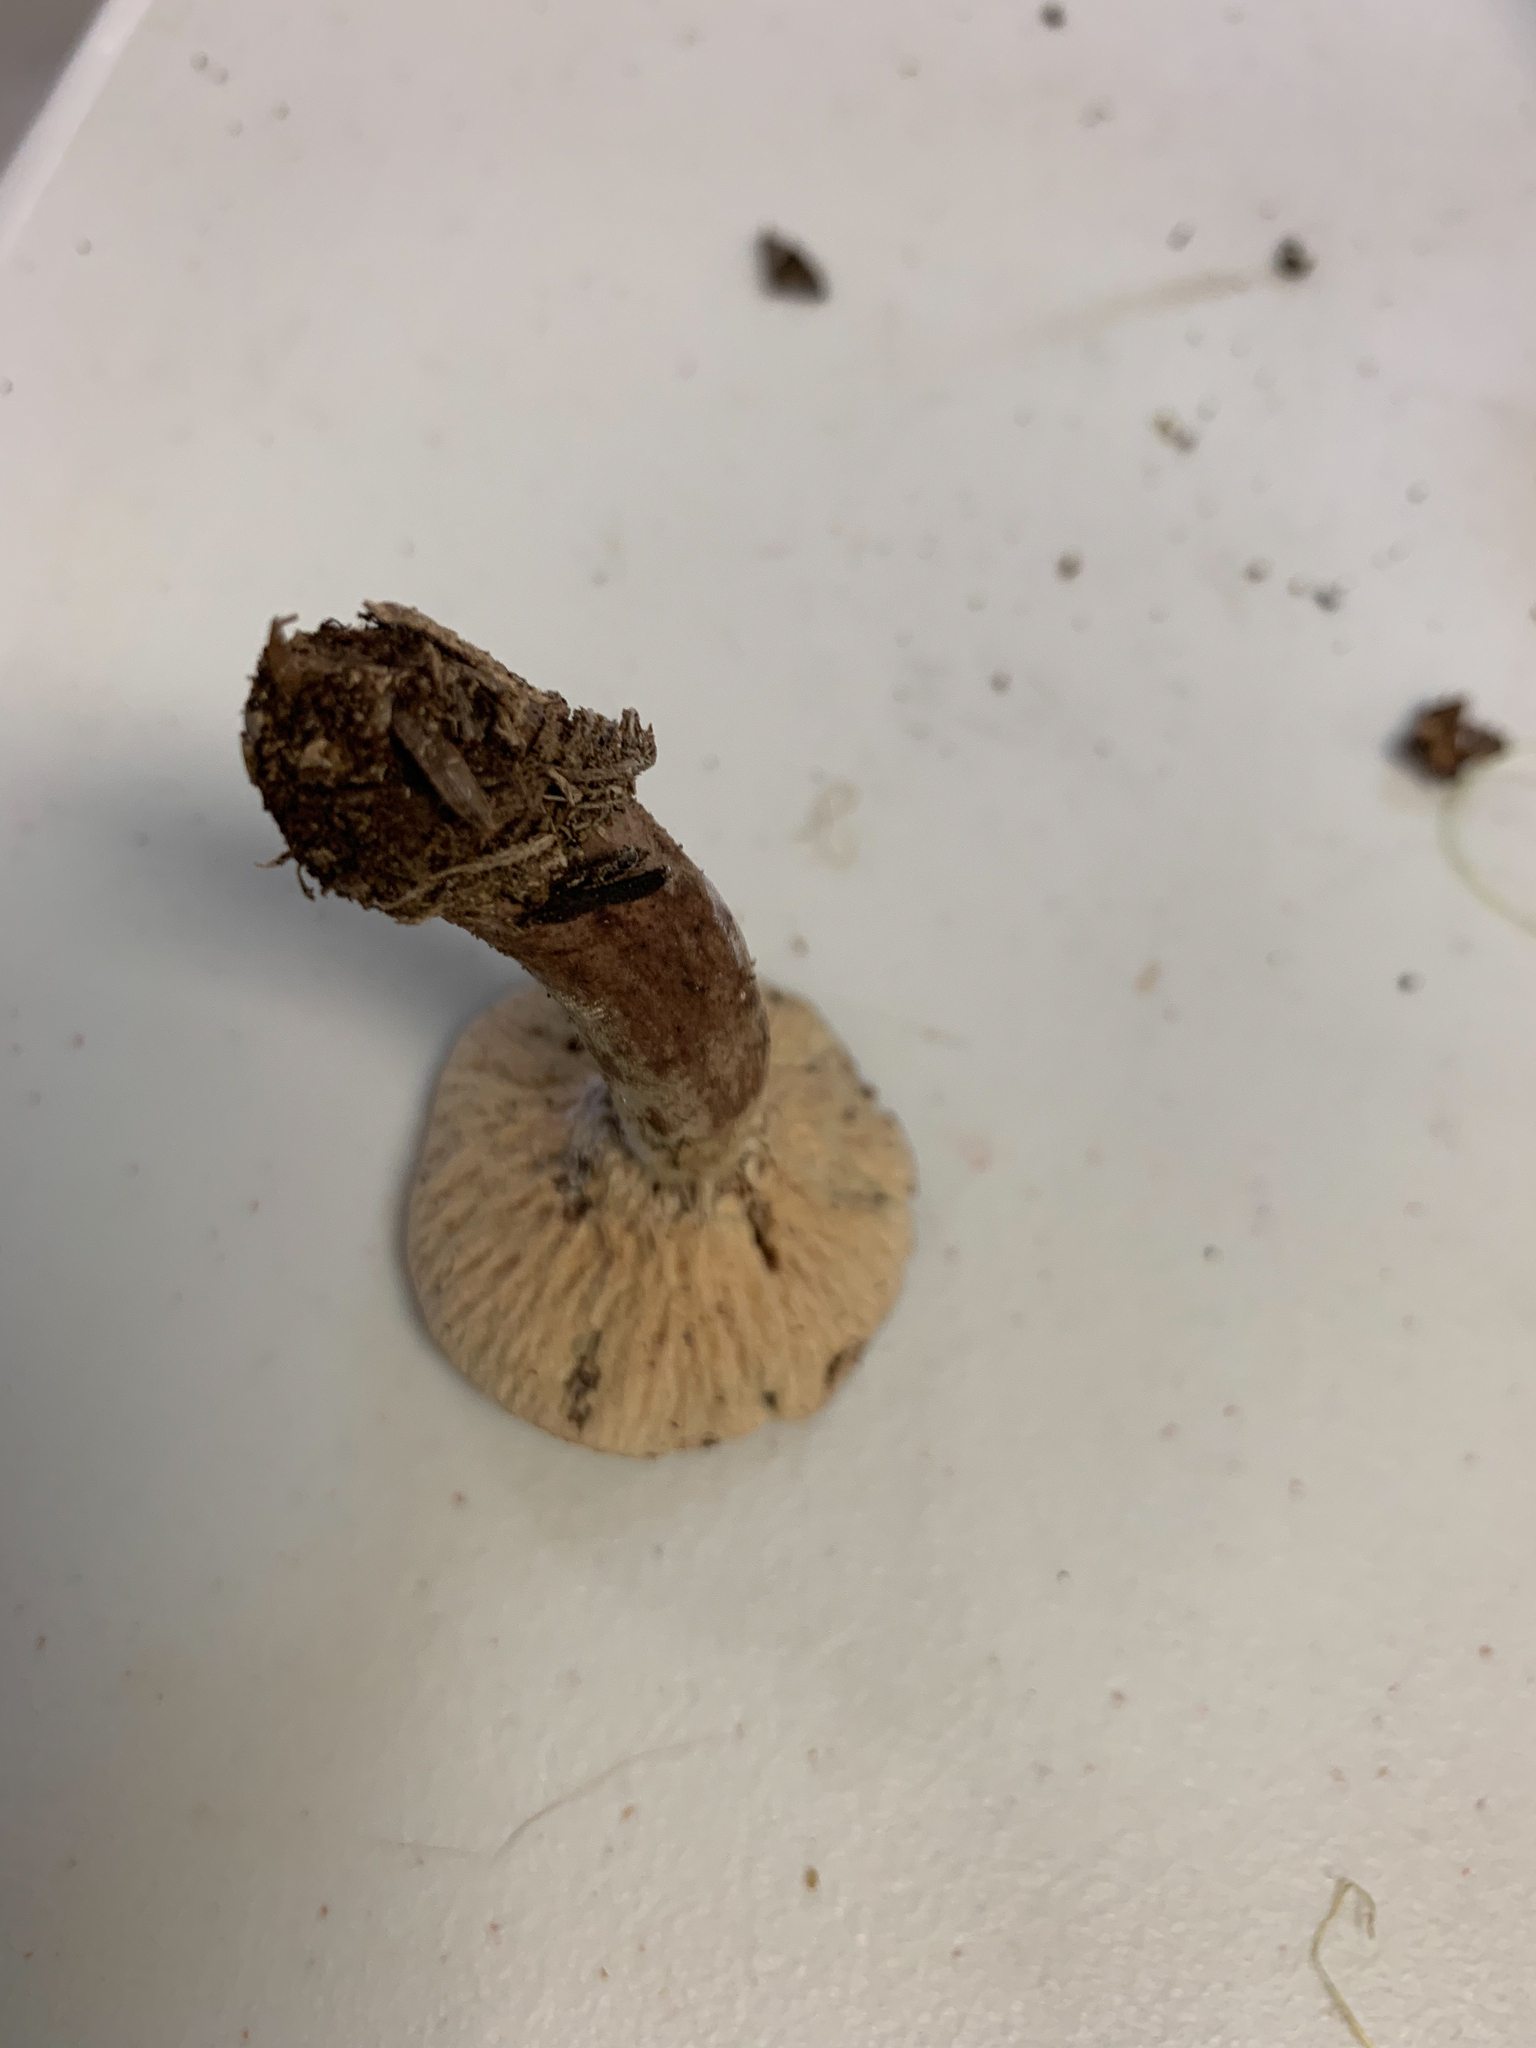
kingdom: Fungi
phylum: Ascomycota
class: Sordariomycetes
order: Hypocreales
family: Hypocreaceae
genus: Hypomyces
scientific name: Hypomyces lateritius
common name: Ochre gillgobbler
